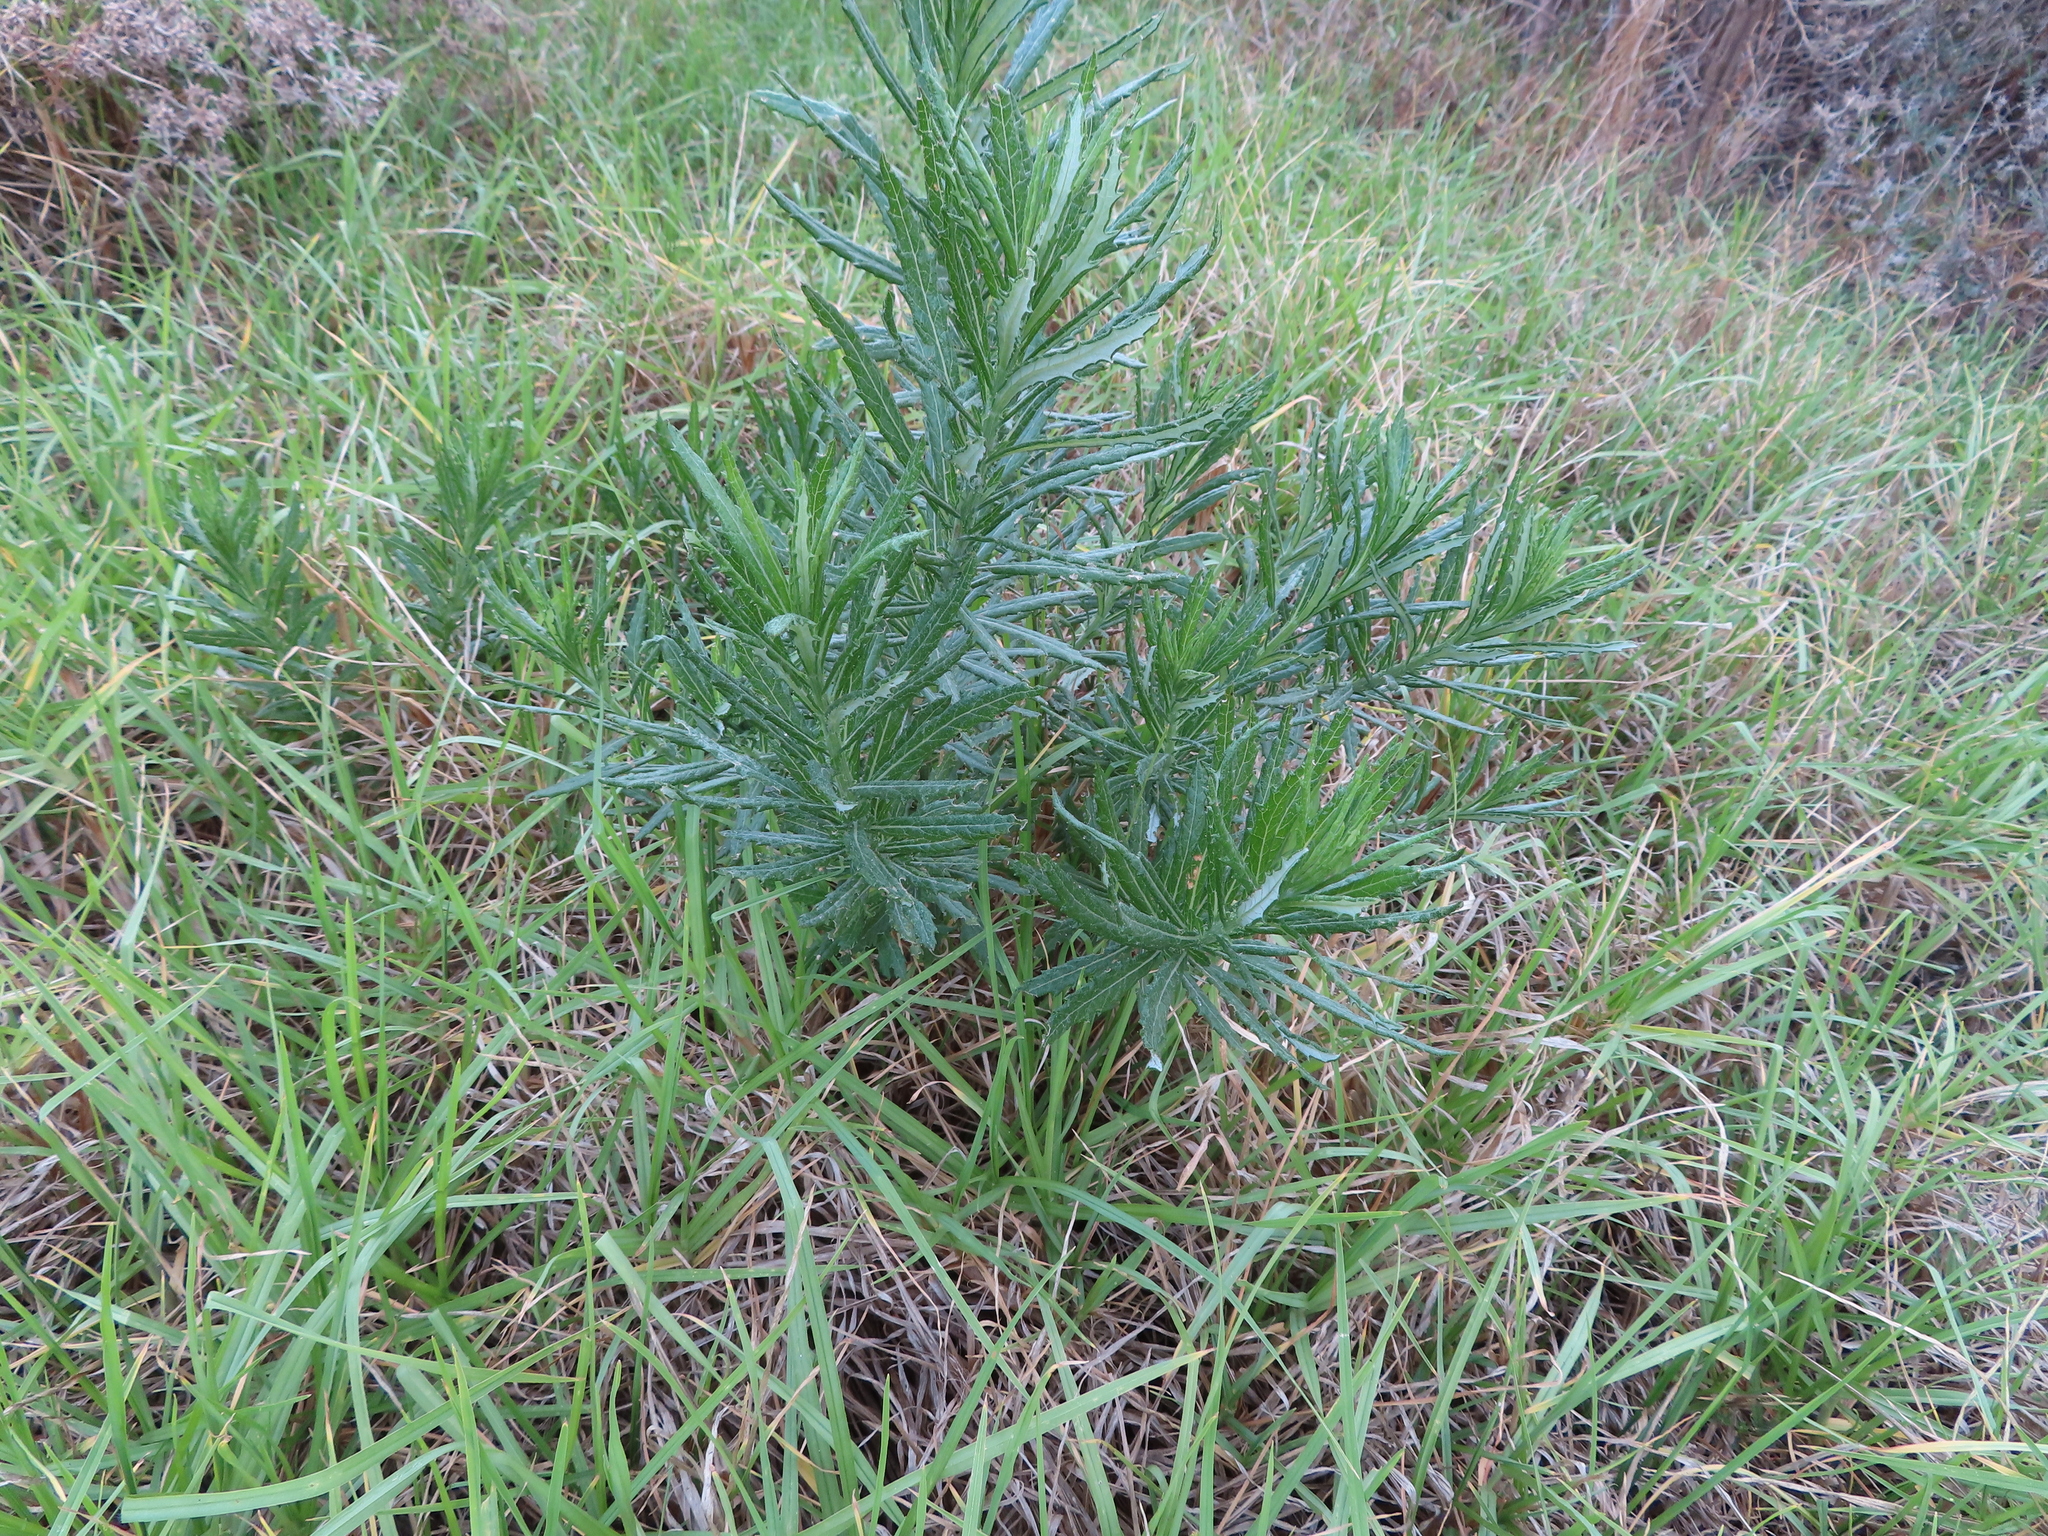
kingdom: Plantae
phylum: Tracheophyta
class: Magnoliopsida
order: Asterales
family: Asteraceae
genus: Senecio
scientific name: Senecio pterophorus
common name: Shoddy ragwort
